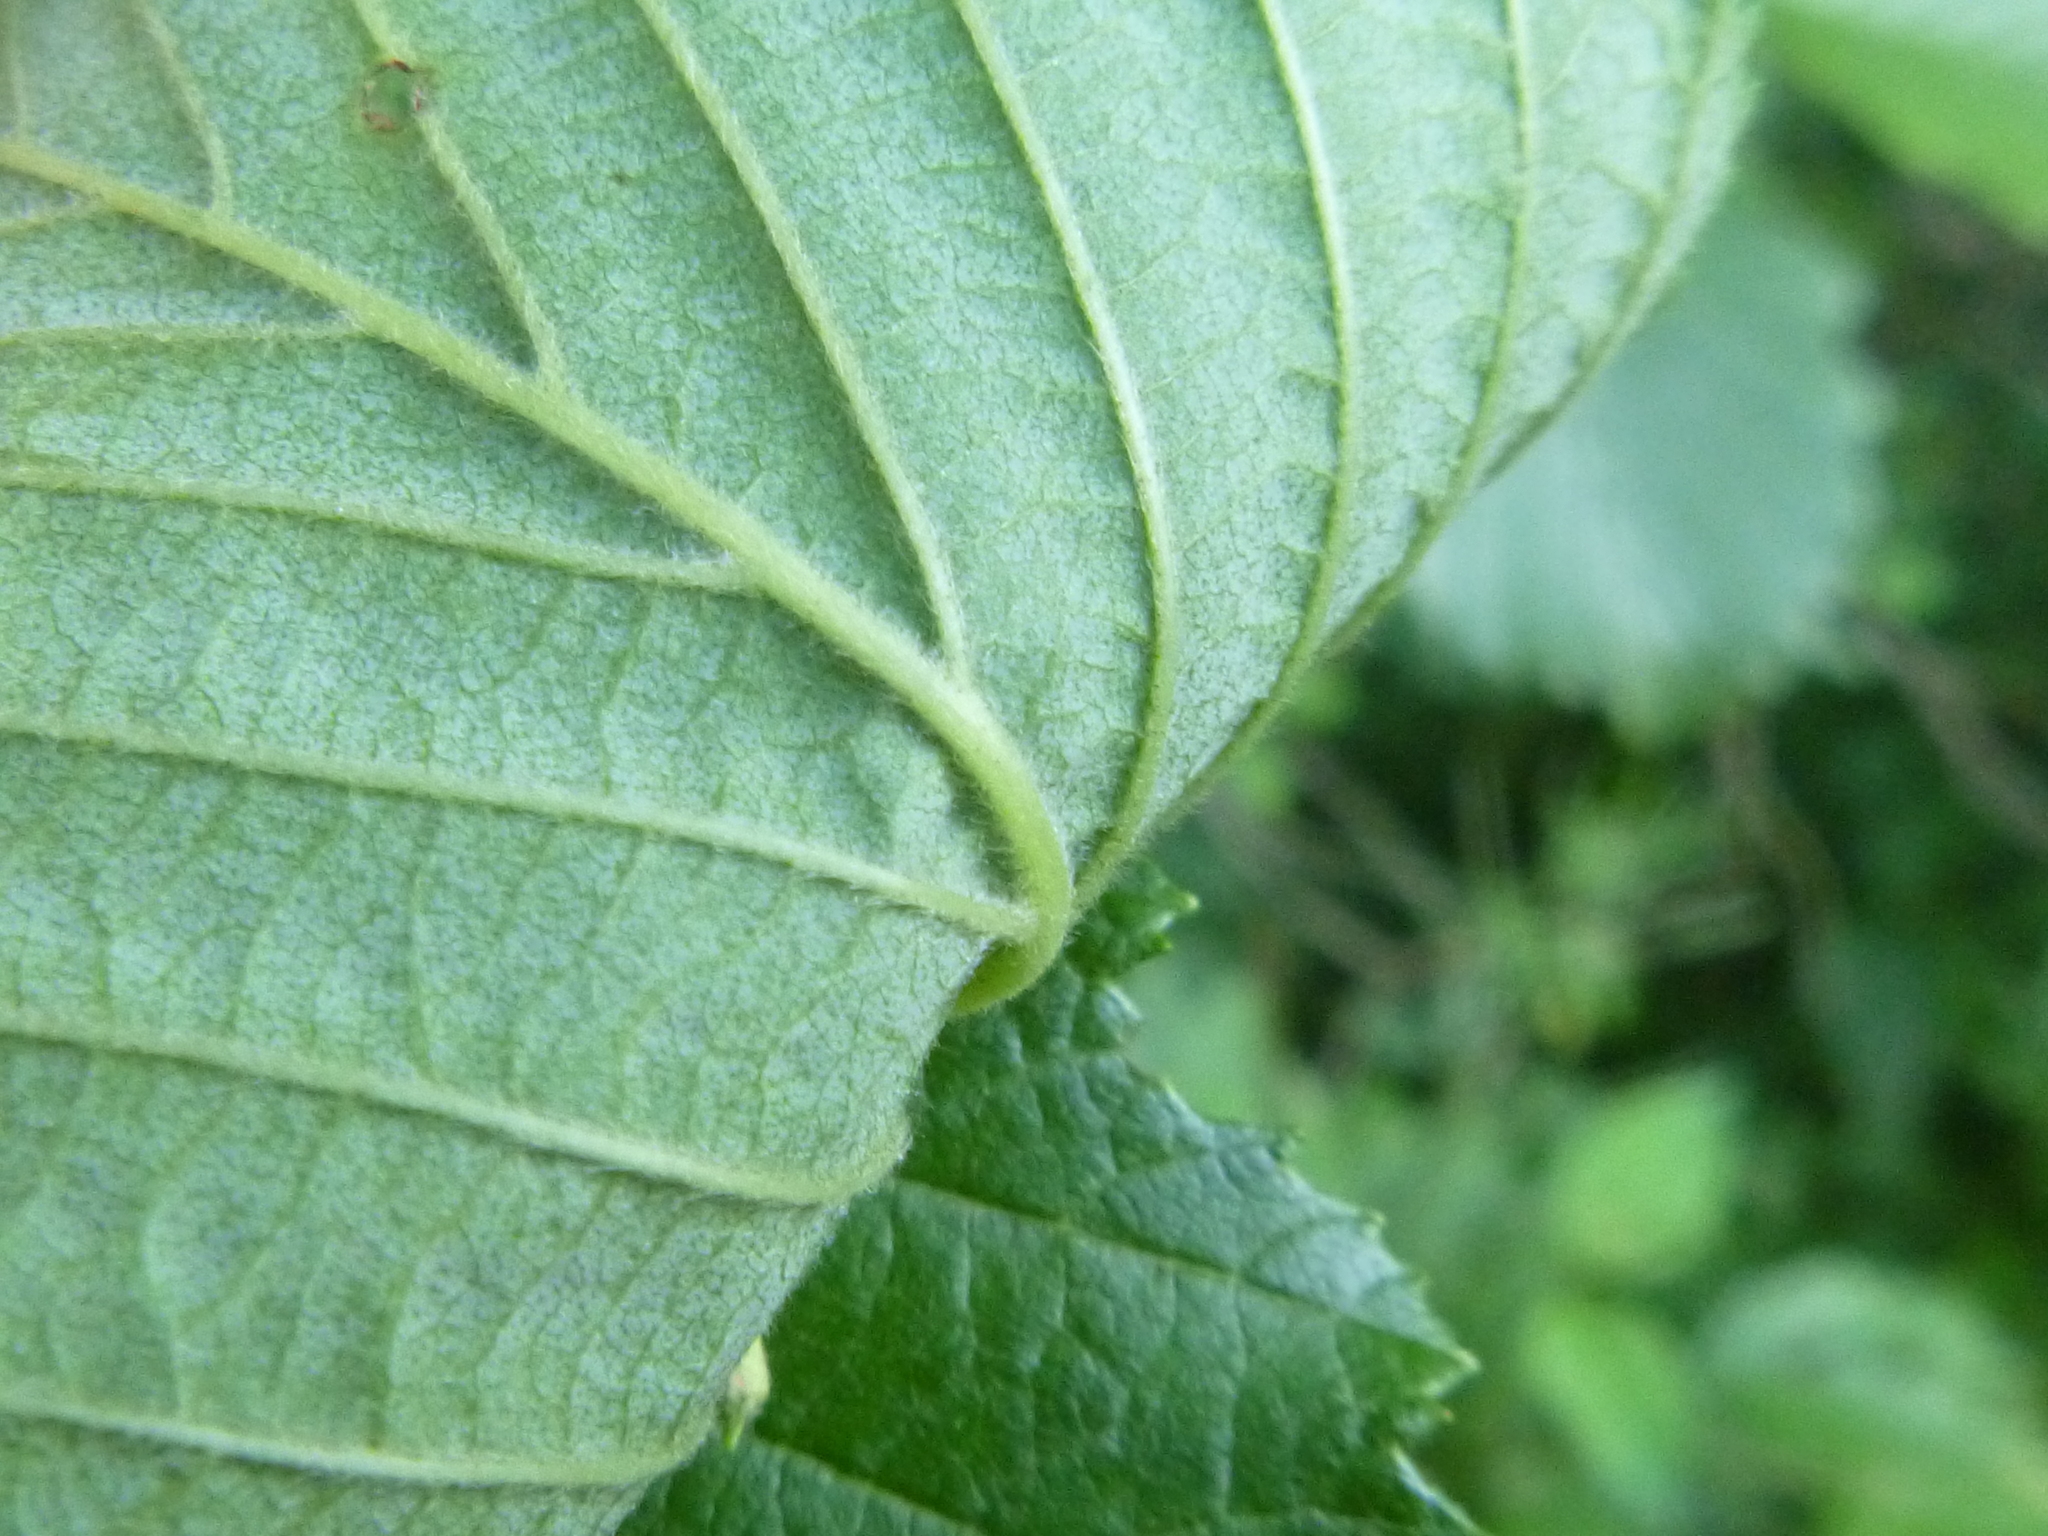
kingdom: Plantae
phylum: Tracheophyta
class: Magnoliopsida
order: Fagales
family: Betulaceae
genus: Alnus
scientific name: Alnus incana
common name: Grey alder
